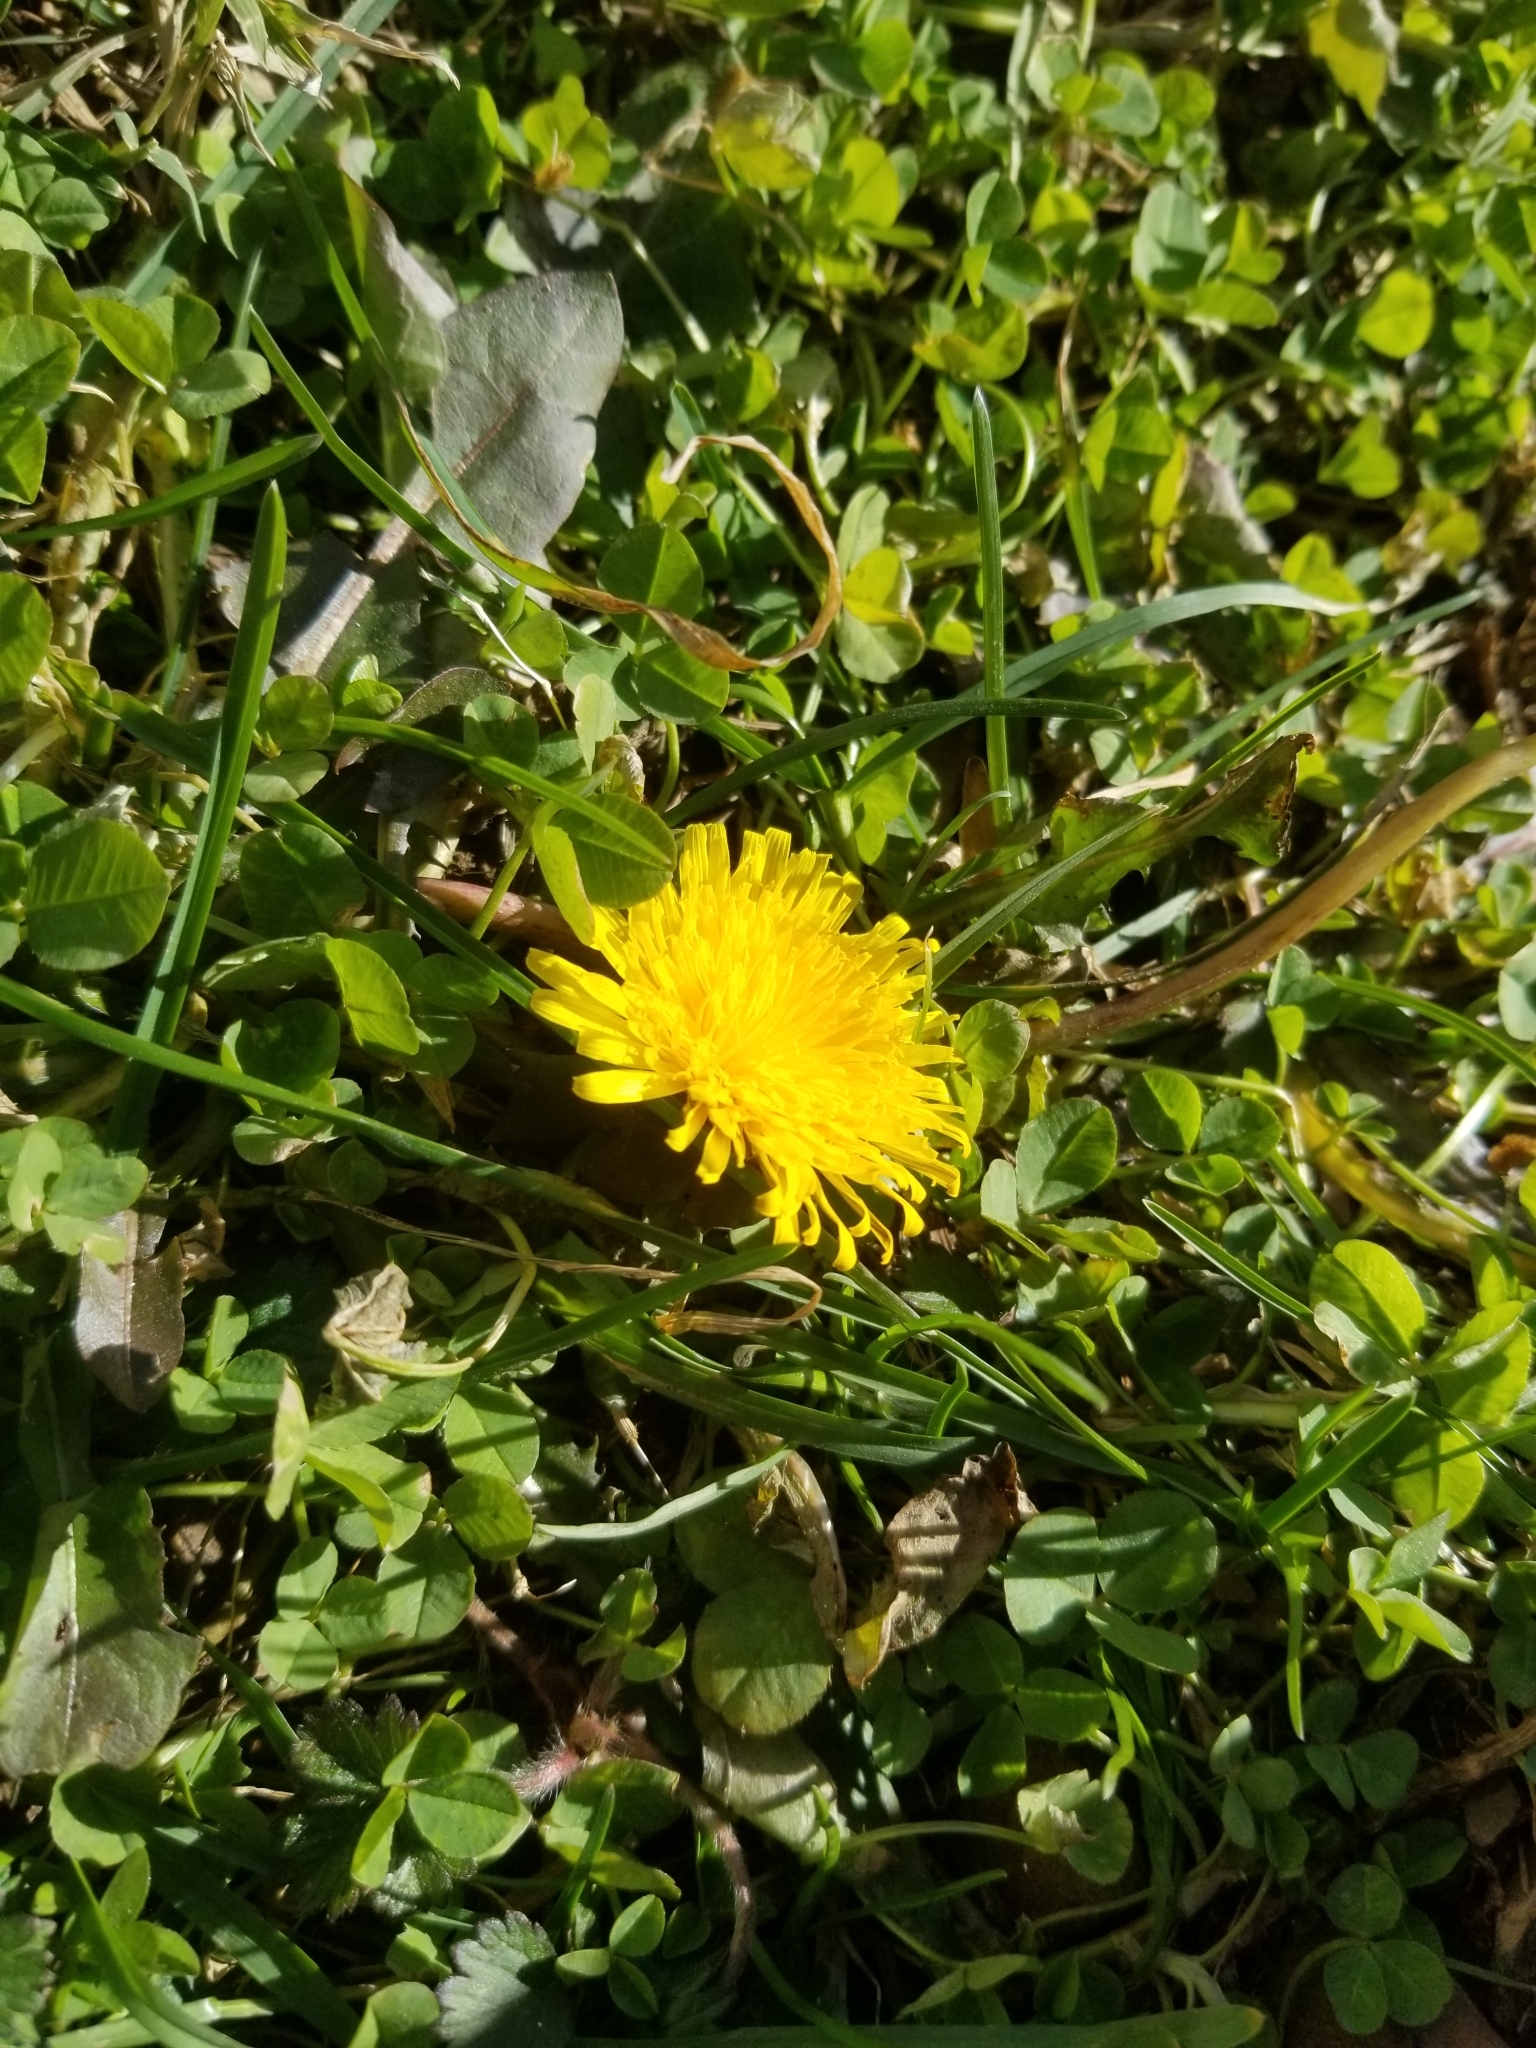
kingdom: Plantae
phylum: Tracheophyta
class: Magnoliopsida
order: Asterales
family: Asteraceae
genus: Taraxacum
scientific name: Taraxacum officinale
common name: Common dandelion
